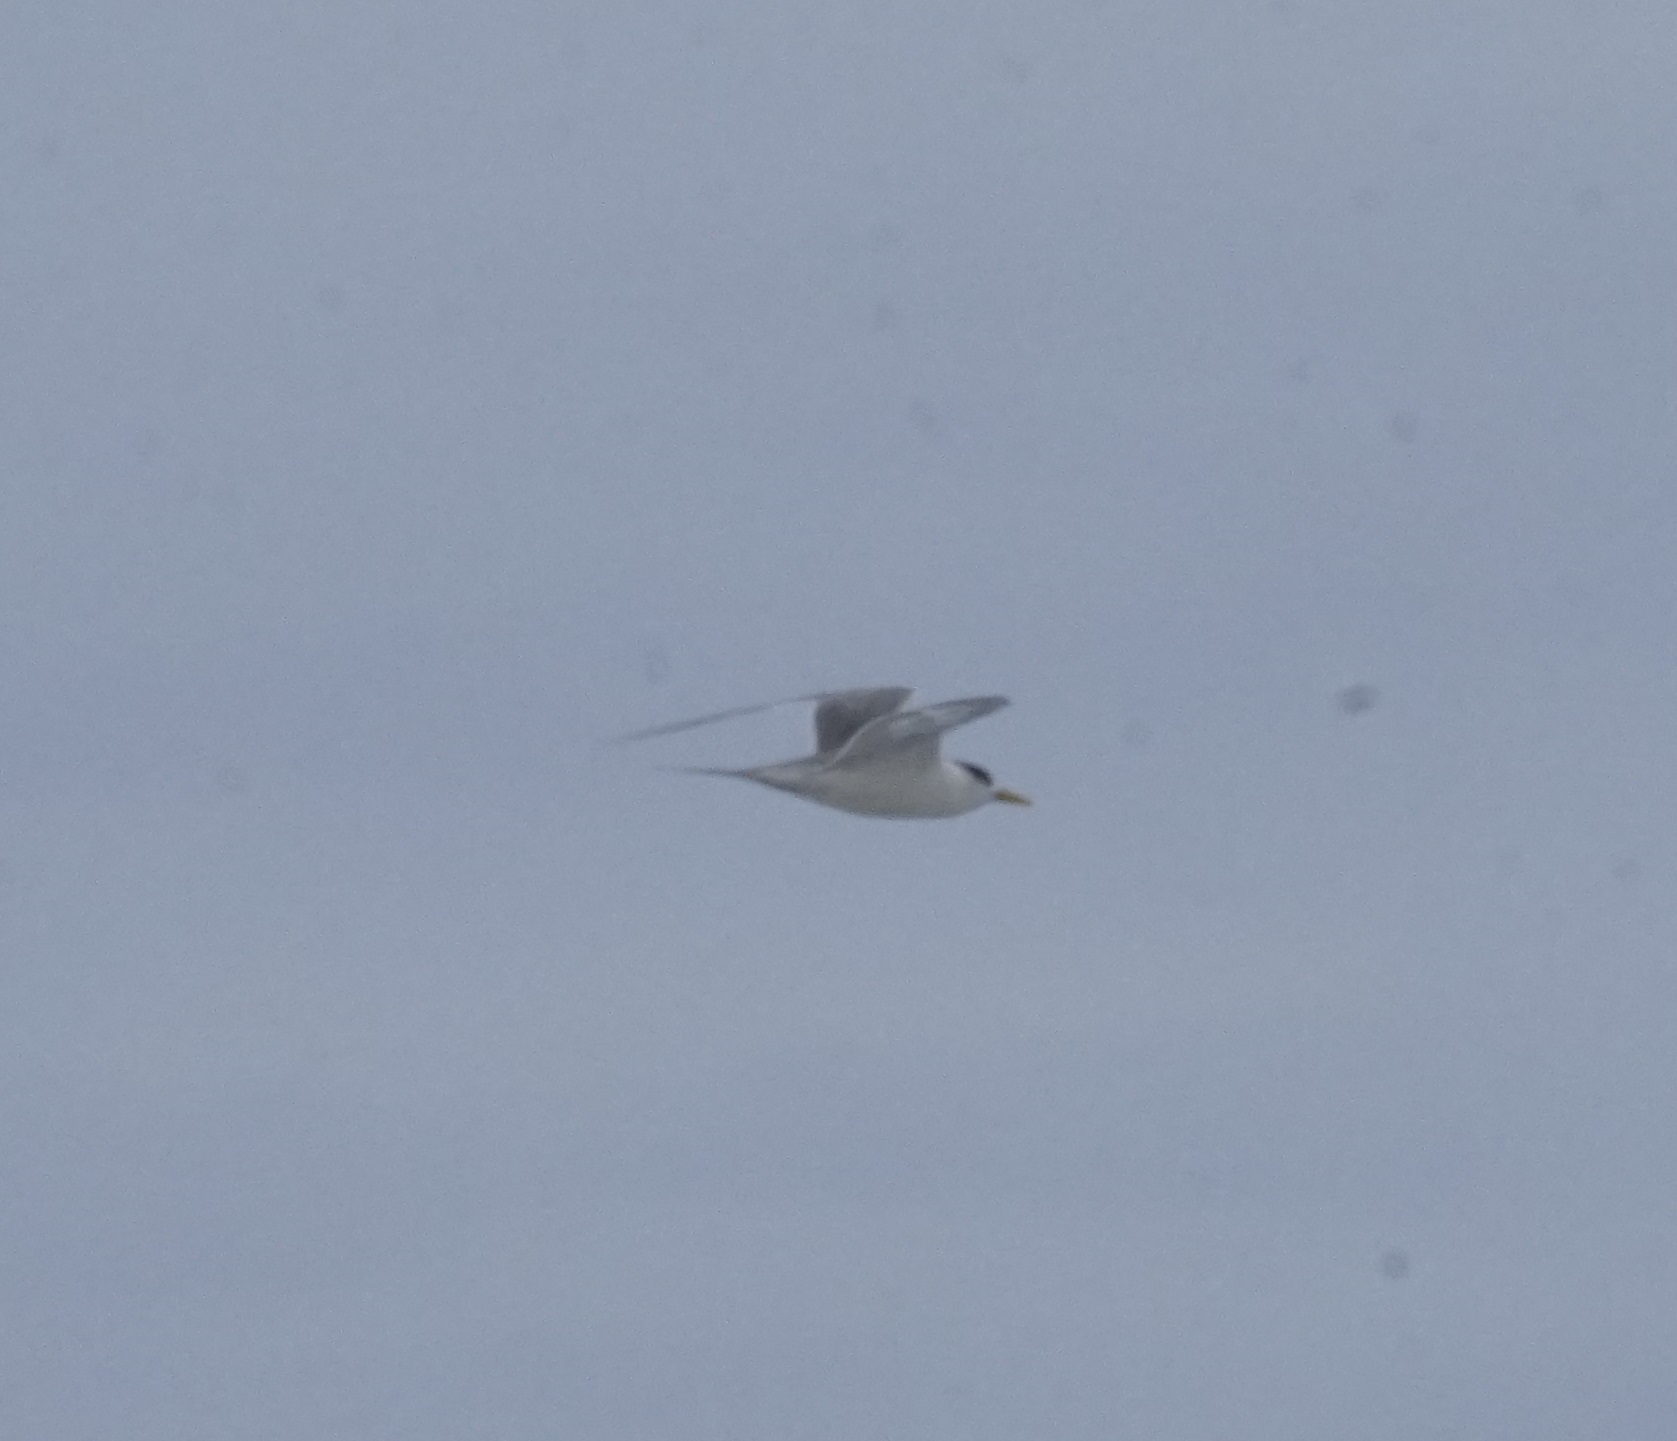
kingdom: Animalia
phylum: Chordata
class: Aves
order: Charadriiformes
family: Laridae
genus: Thalasseus
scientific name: Thalasseus bergii
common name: Greater crested tern
